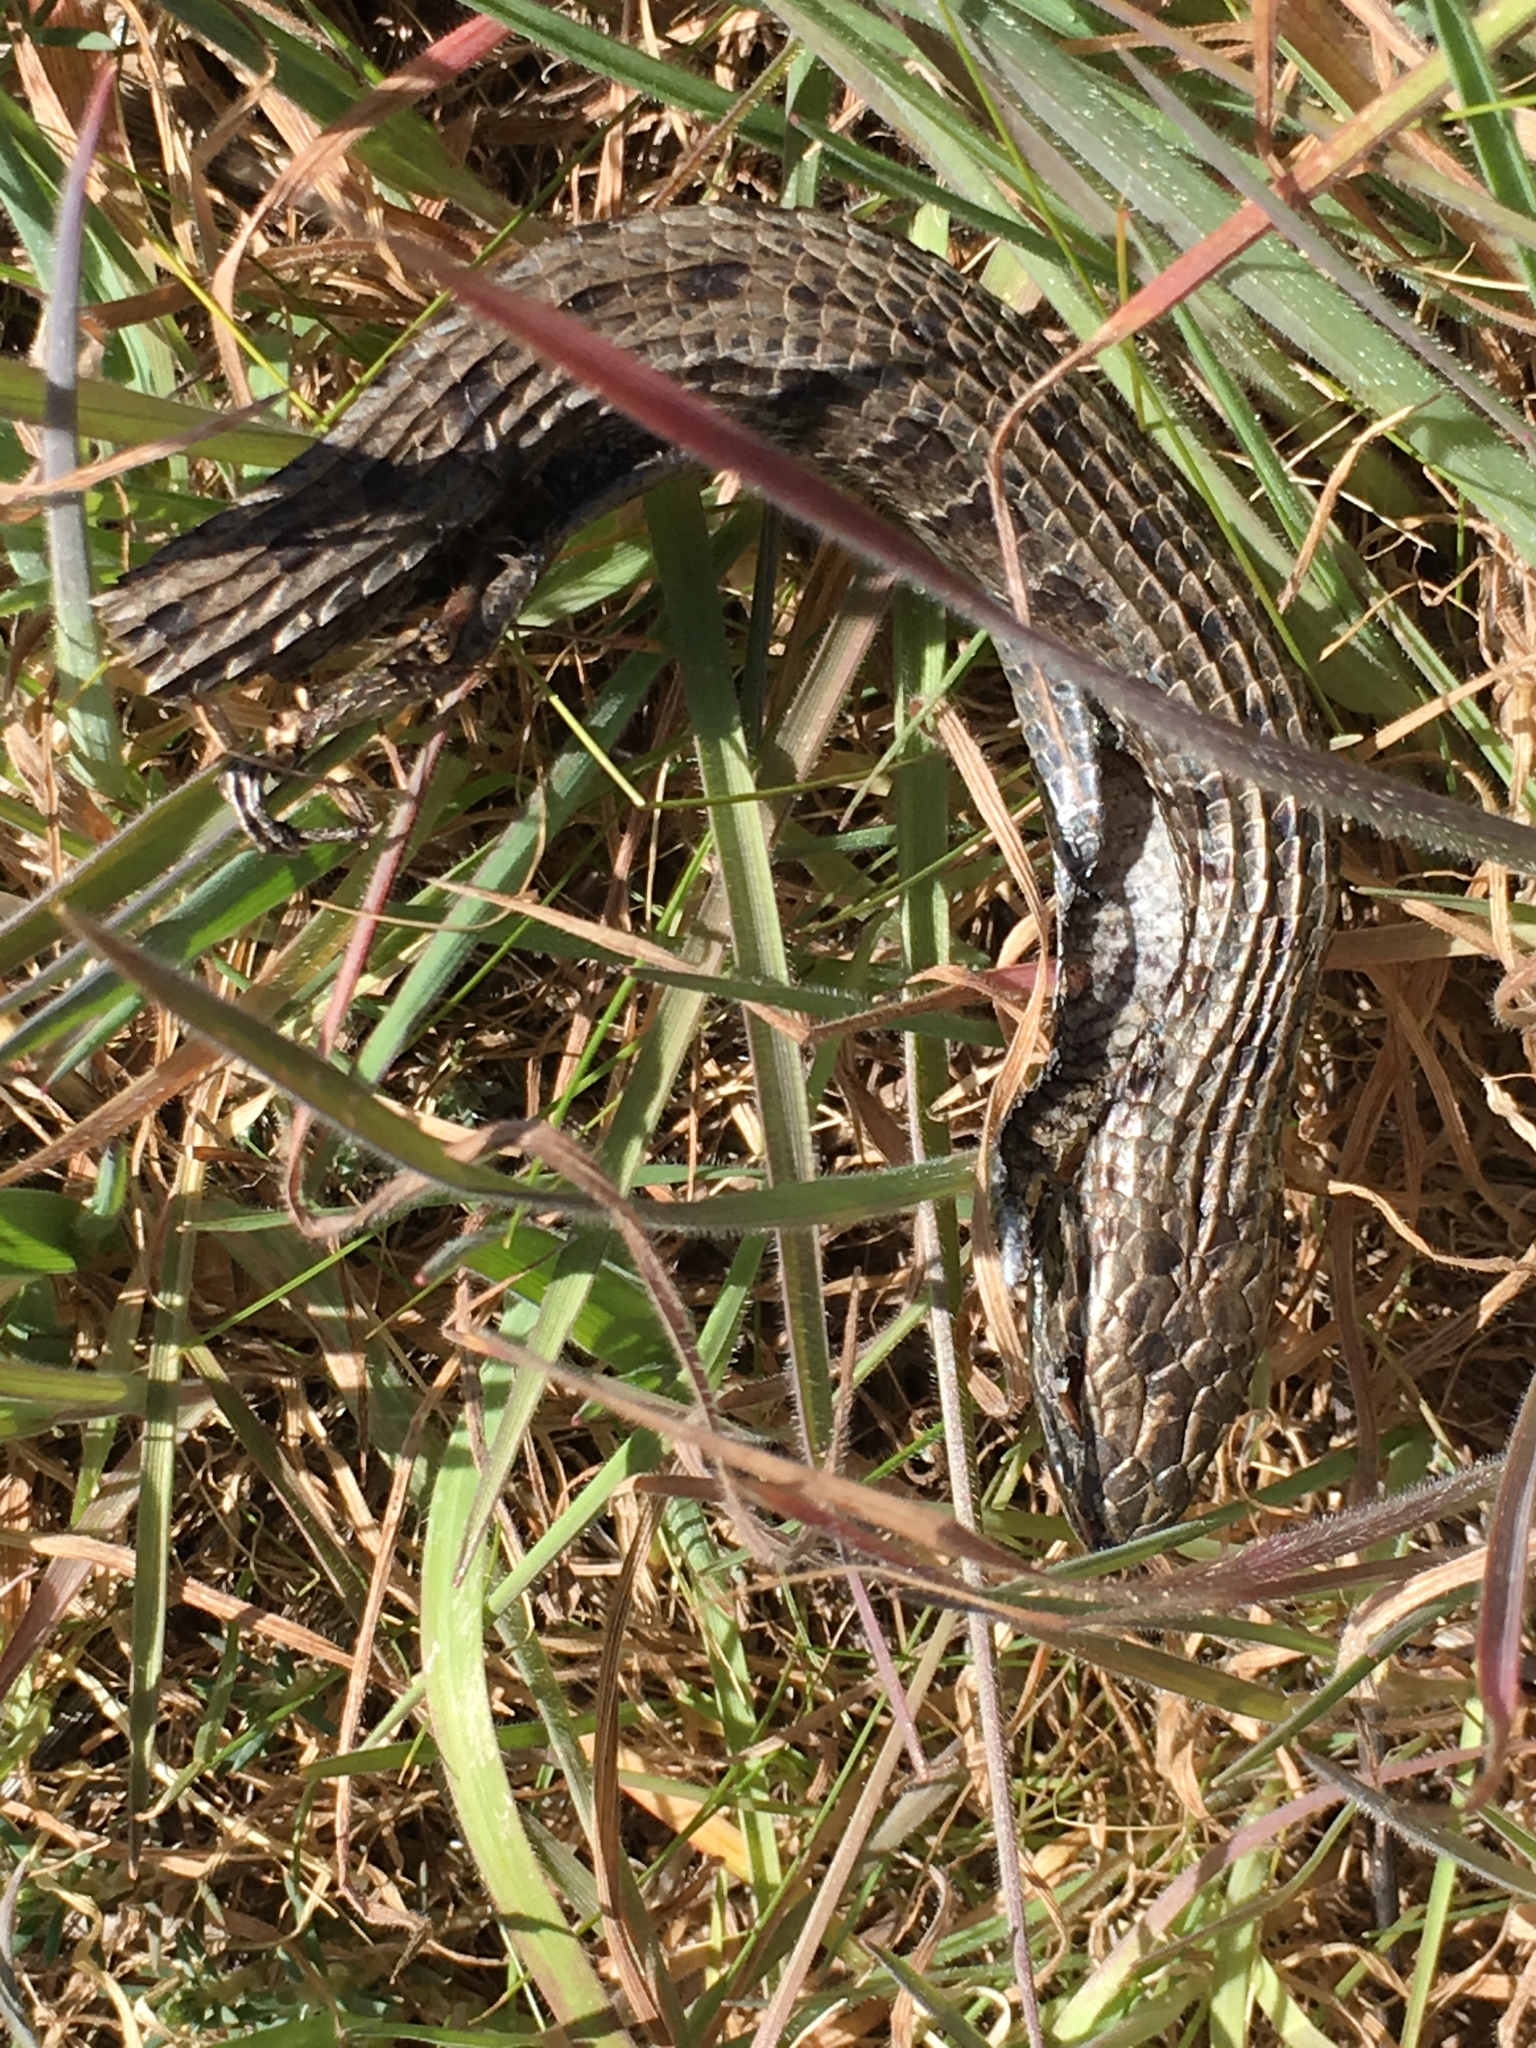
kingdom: Animalia
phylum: Chordata
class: Squamata
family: Anguidae
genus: Elgaria
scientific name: Elgaria coerulea
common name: Northern alligator lizard
